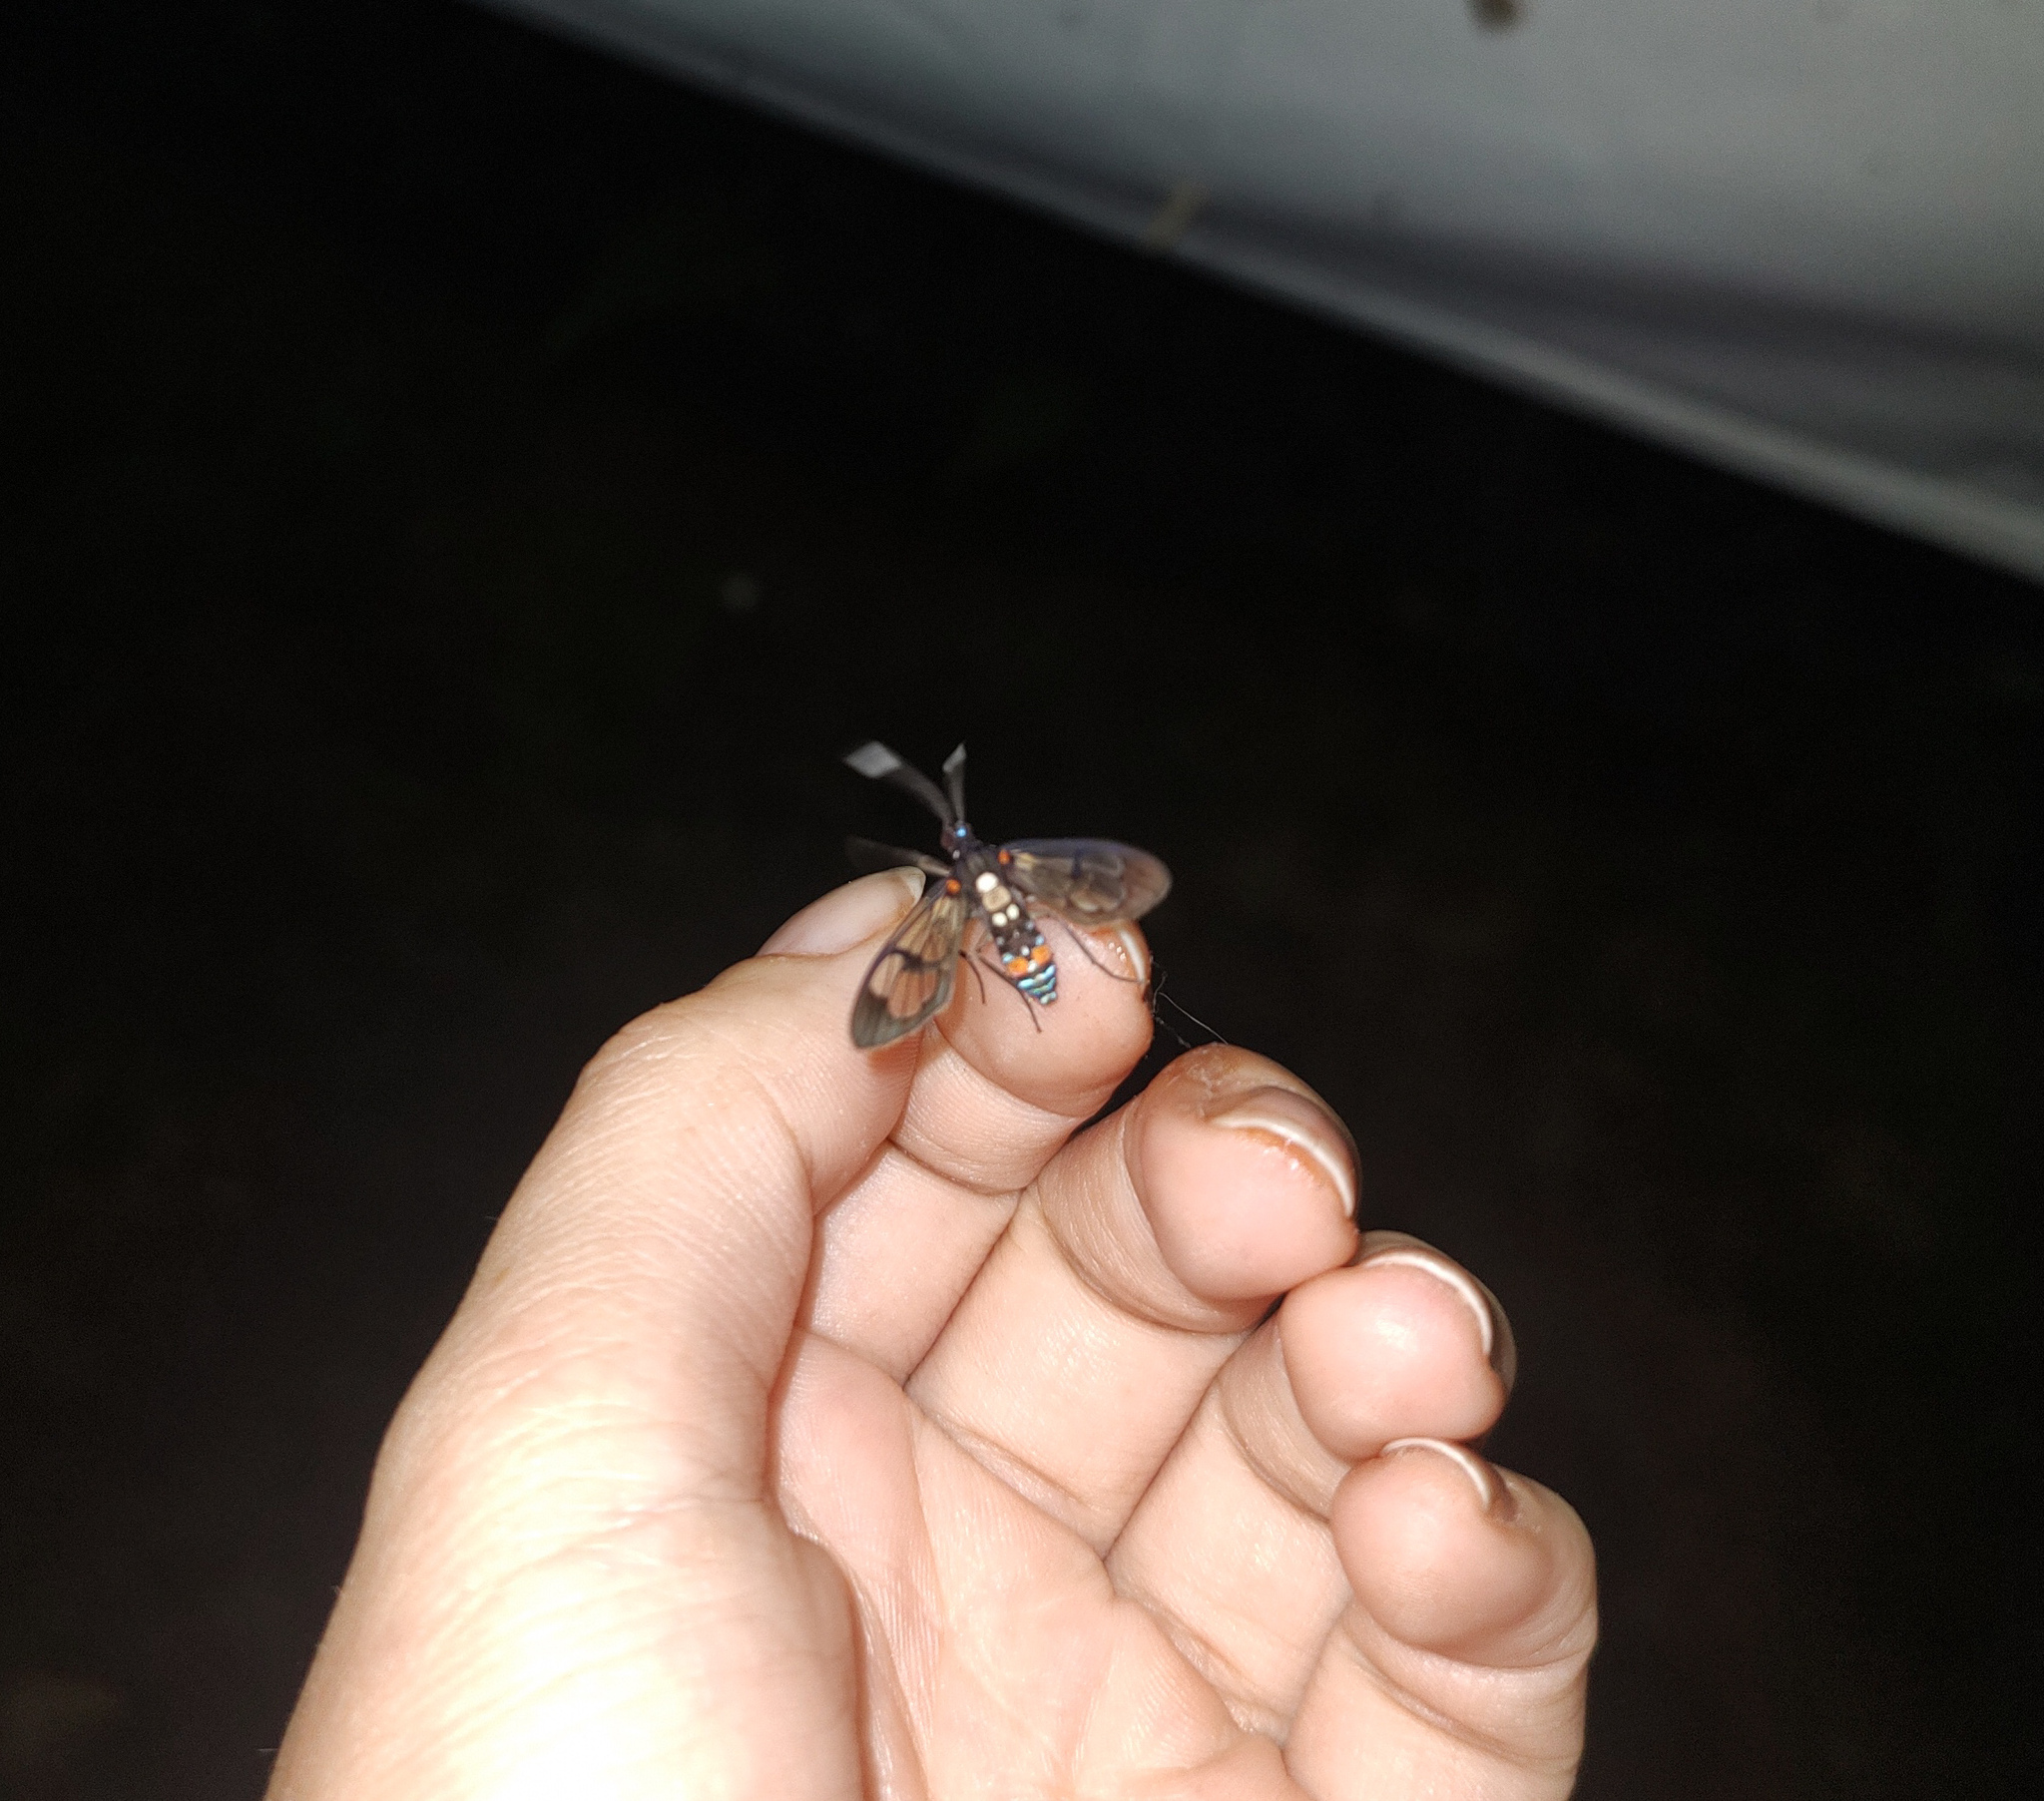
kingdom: Animalia
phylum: Arthropoda
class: Insecta
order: Lepidoptera
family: Erebidae
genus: Cosmosoma
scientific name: Cosmosoma leuconoton
